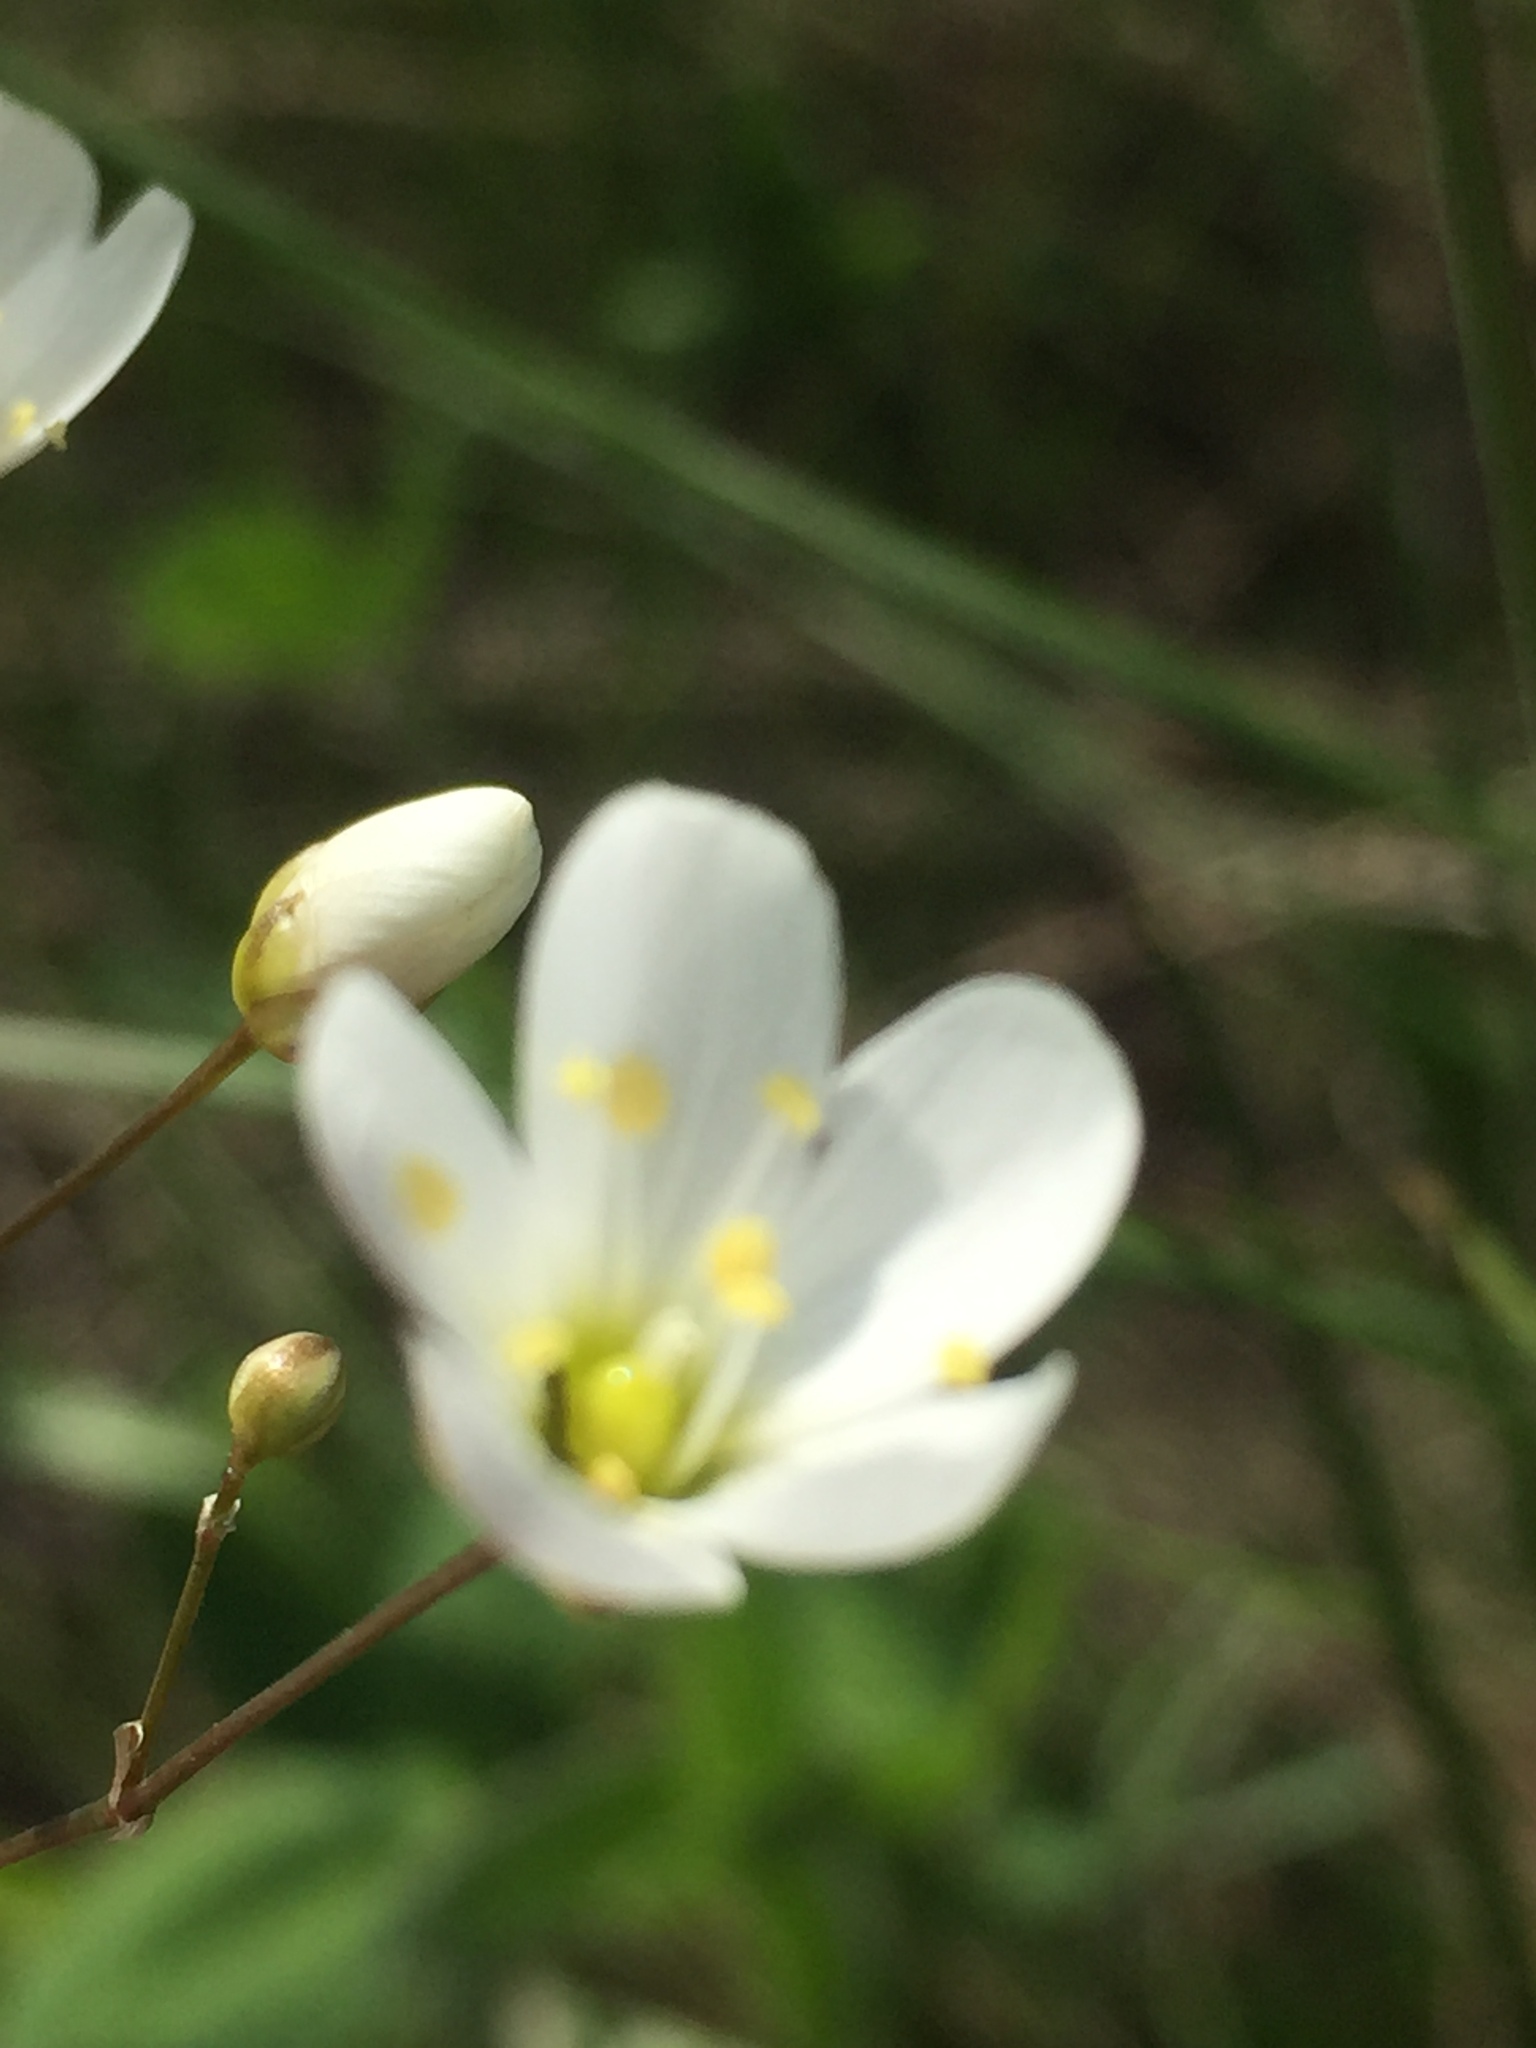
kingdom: Plantae
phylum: Tracheophyta
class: Magnoliopsida
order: Caryophyllales
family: Caryophyllaceae
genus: Eremogone
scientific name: Eremogone saxatilis
